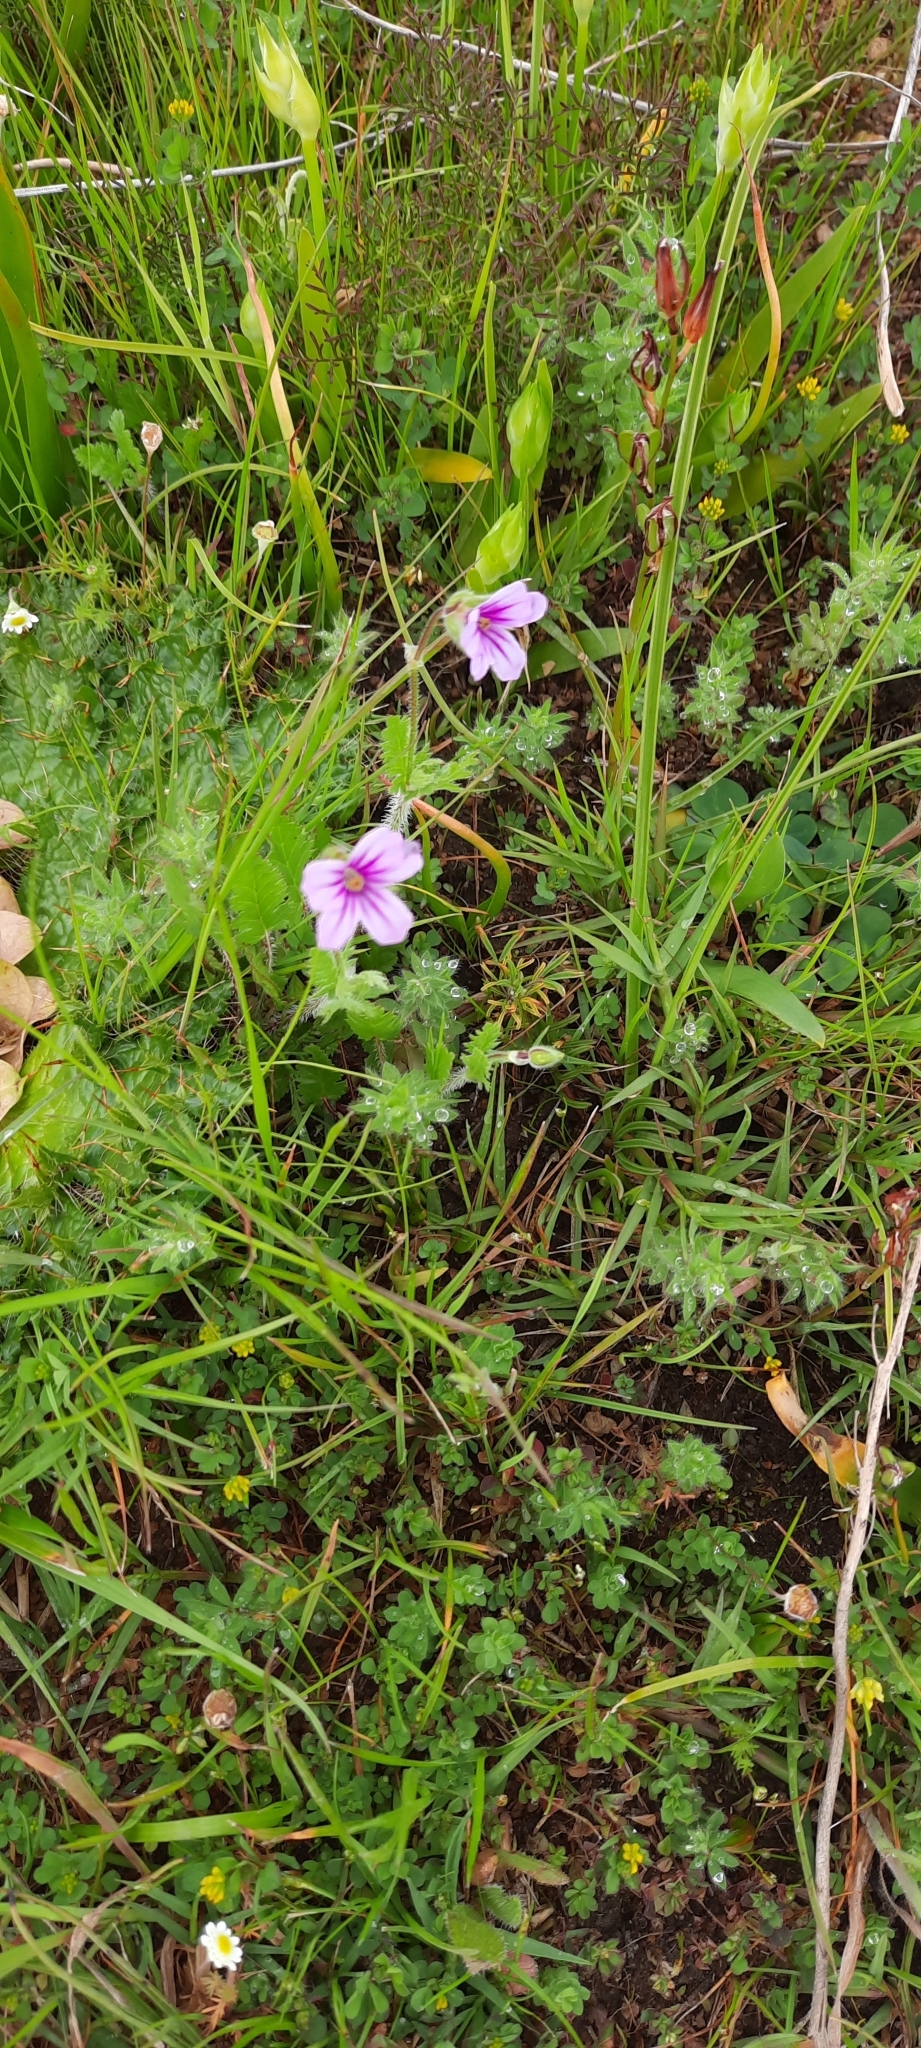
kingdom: Plantae
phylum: Tracheophyta
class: Magnoliopsida
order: Geraniales
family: Geraniaceae
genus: Erodium
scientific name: Erodium botrys
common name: Mediterranean stork's-bill
